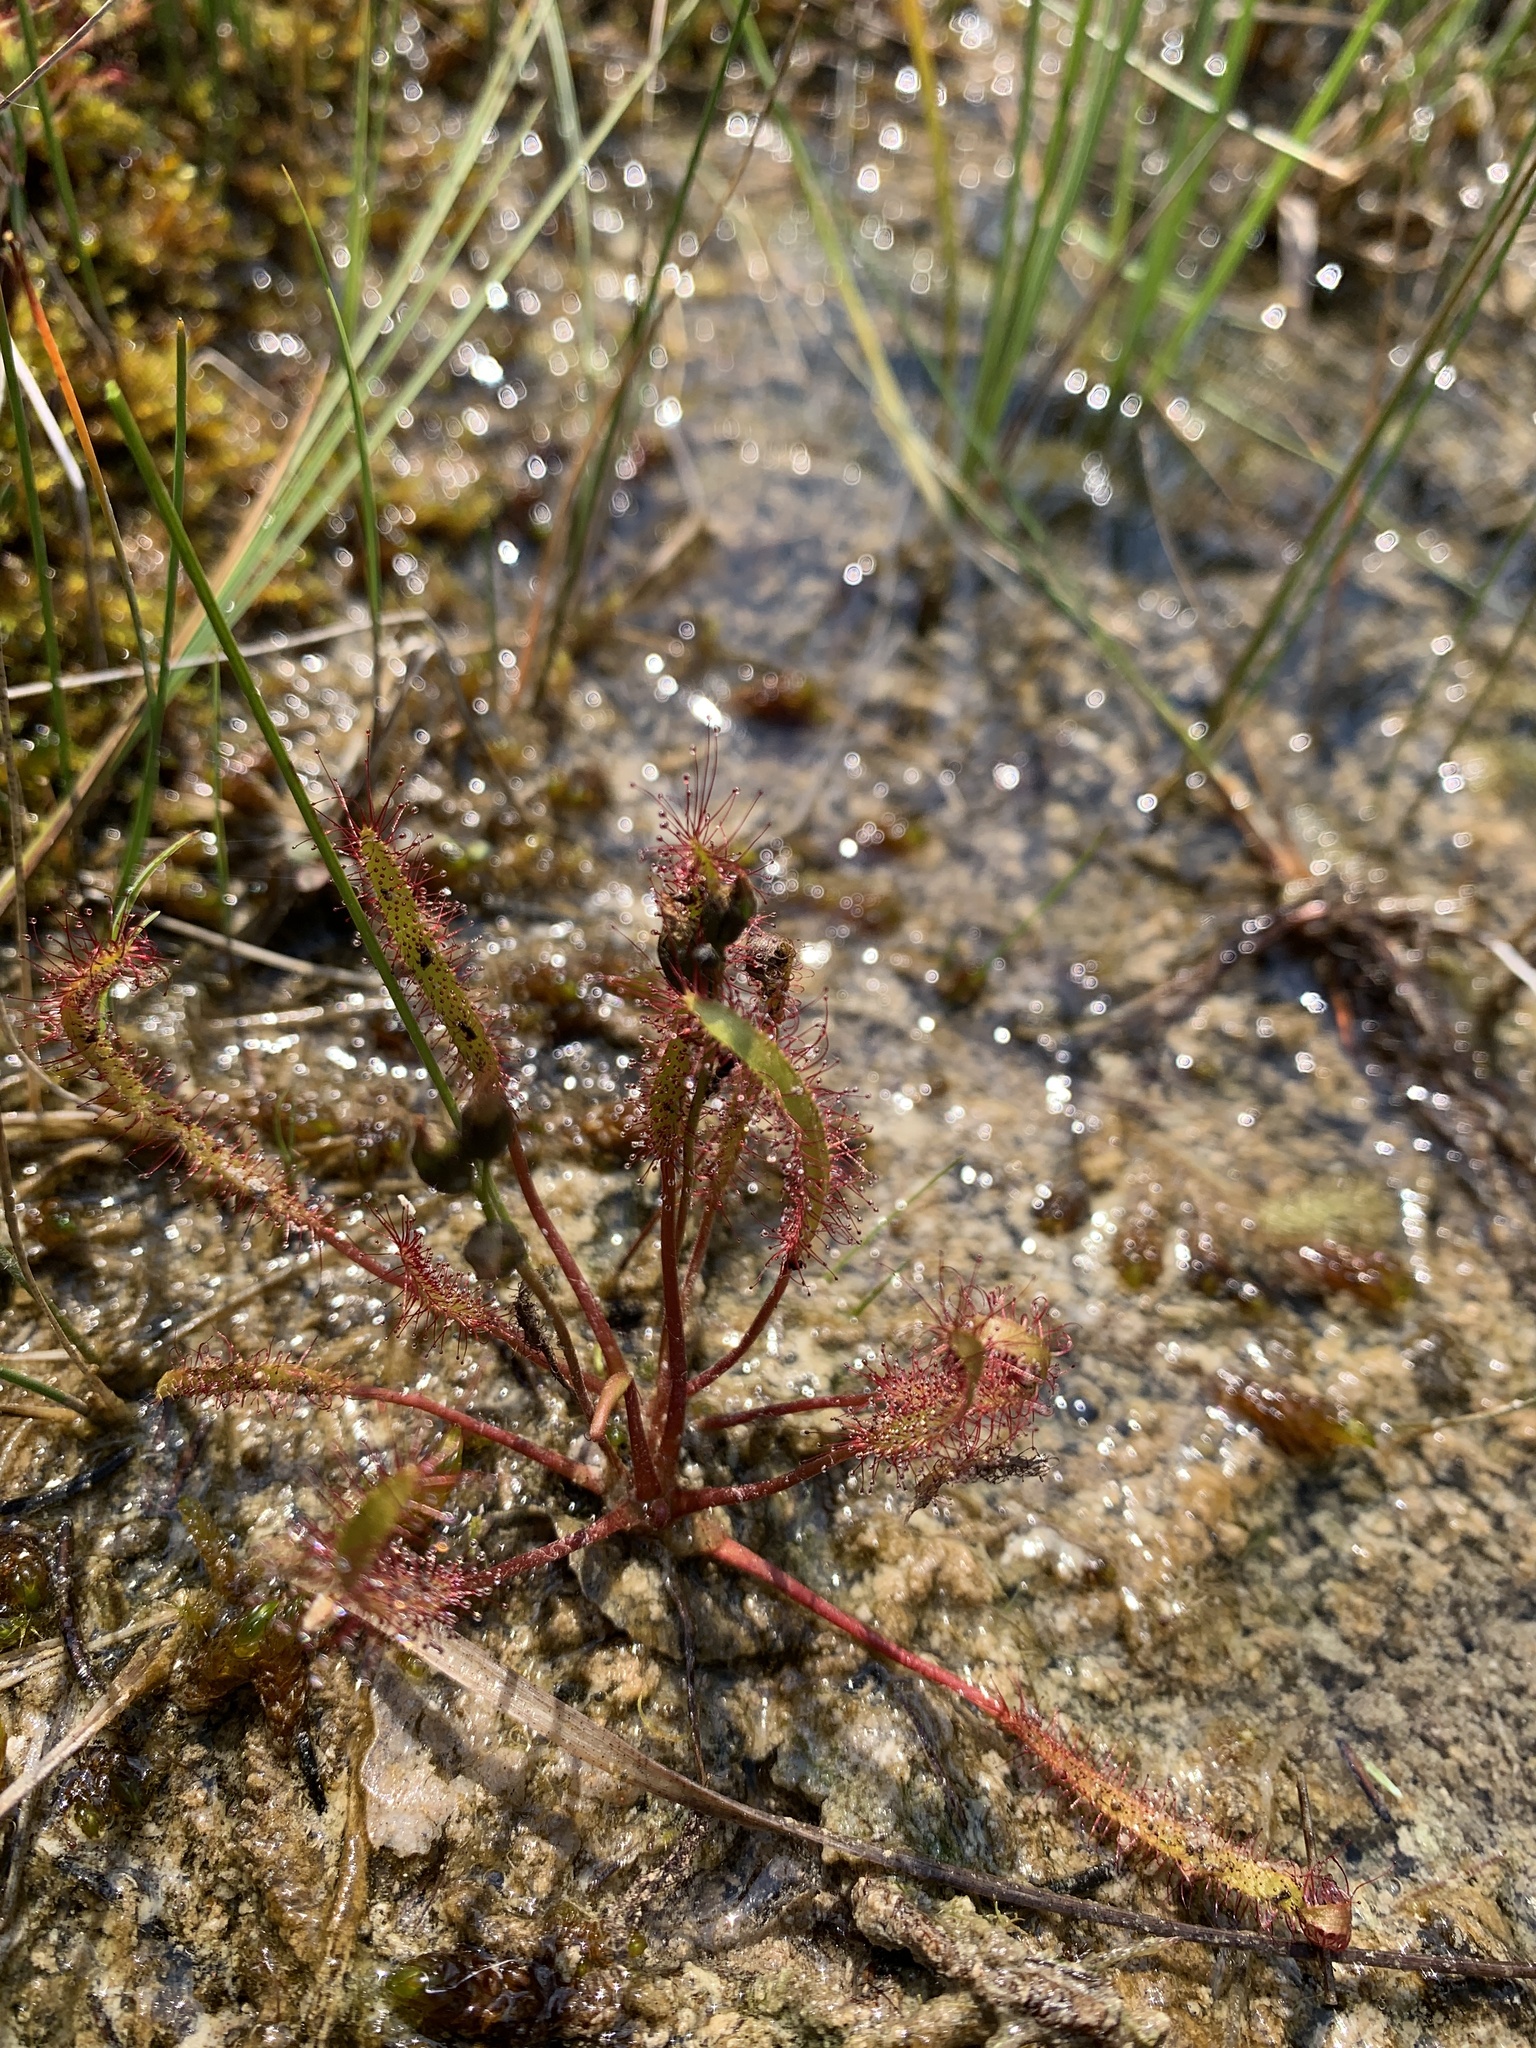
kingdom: Plantae
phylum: Tracheophyta
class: Magnoliopsida
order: Caryophyllales
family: Droseraceae
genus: Drosera
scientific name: Drosera linearis
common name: Linear-leaved sundew
